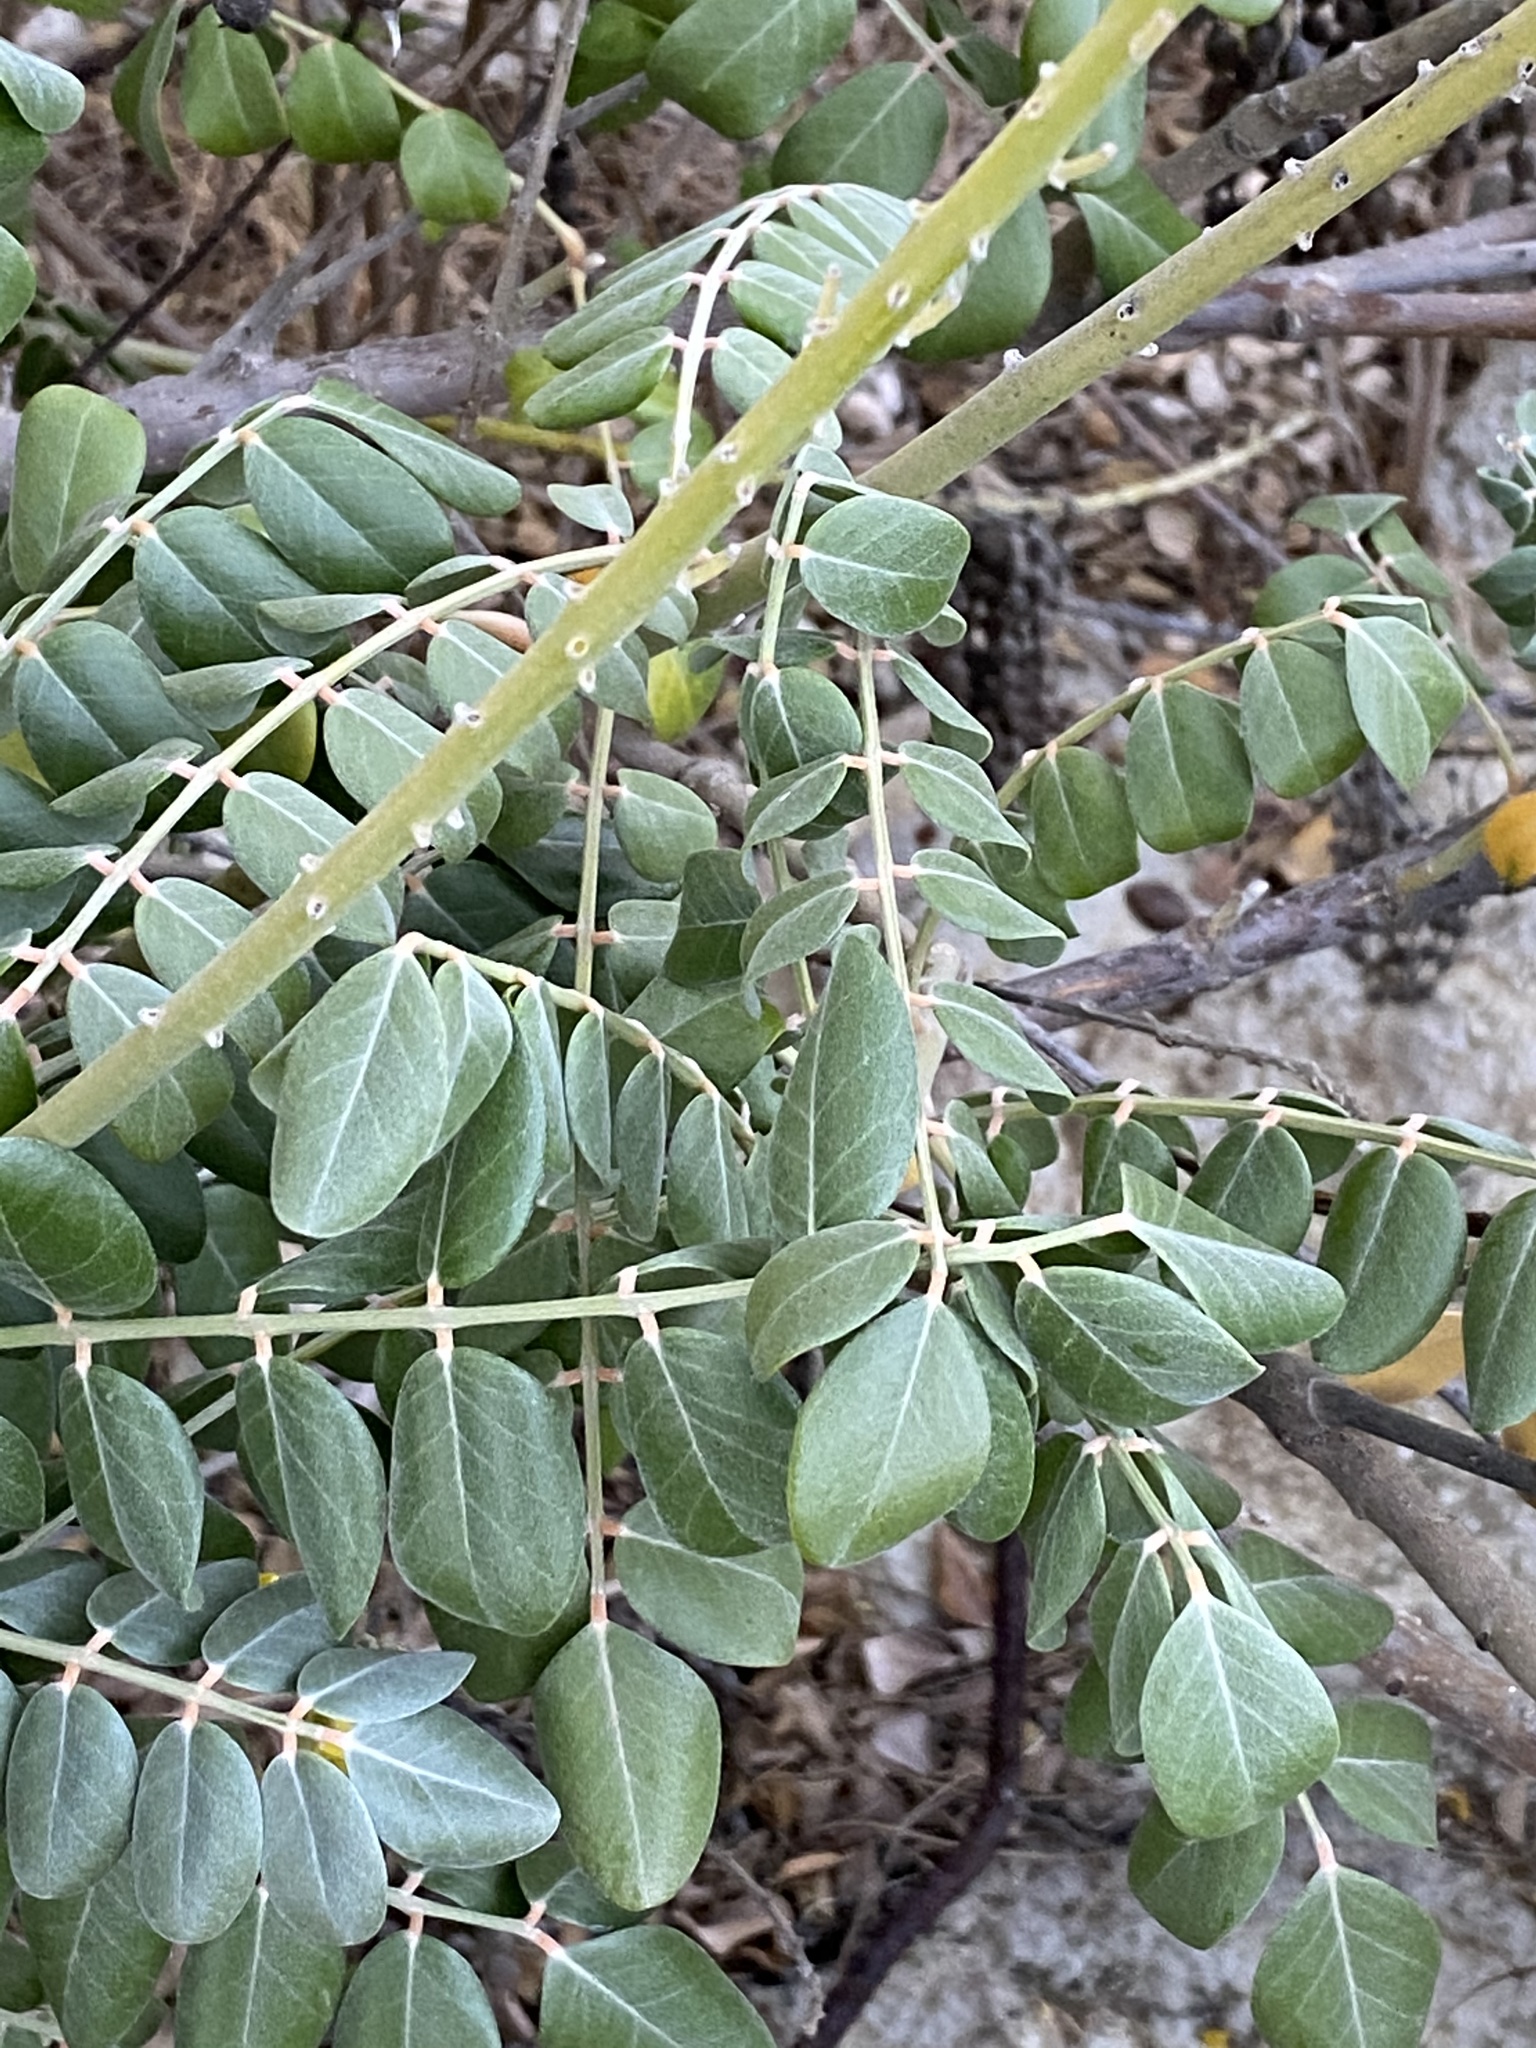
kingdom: Plantae
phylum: Tracheophyta
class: Magnoliopsida
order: Fabales
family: Fabaceae
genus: Sophora
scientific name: Sophora tomentosa
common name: Yellow necklacepod
